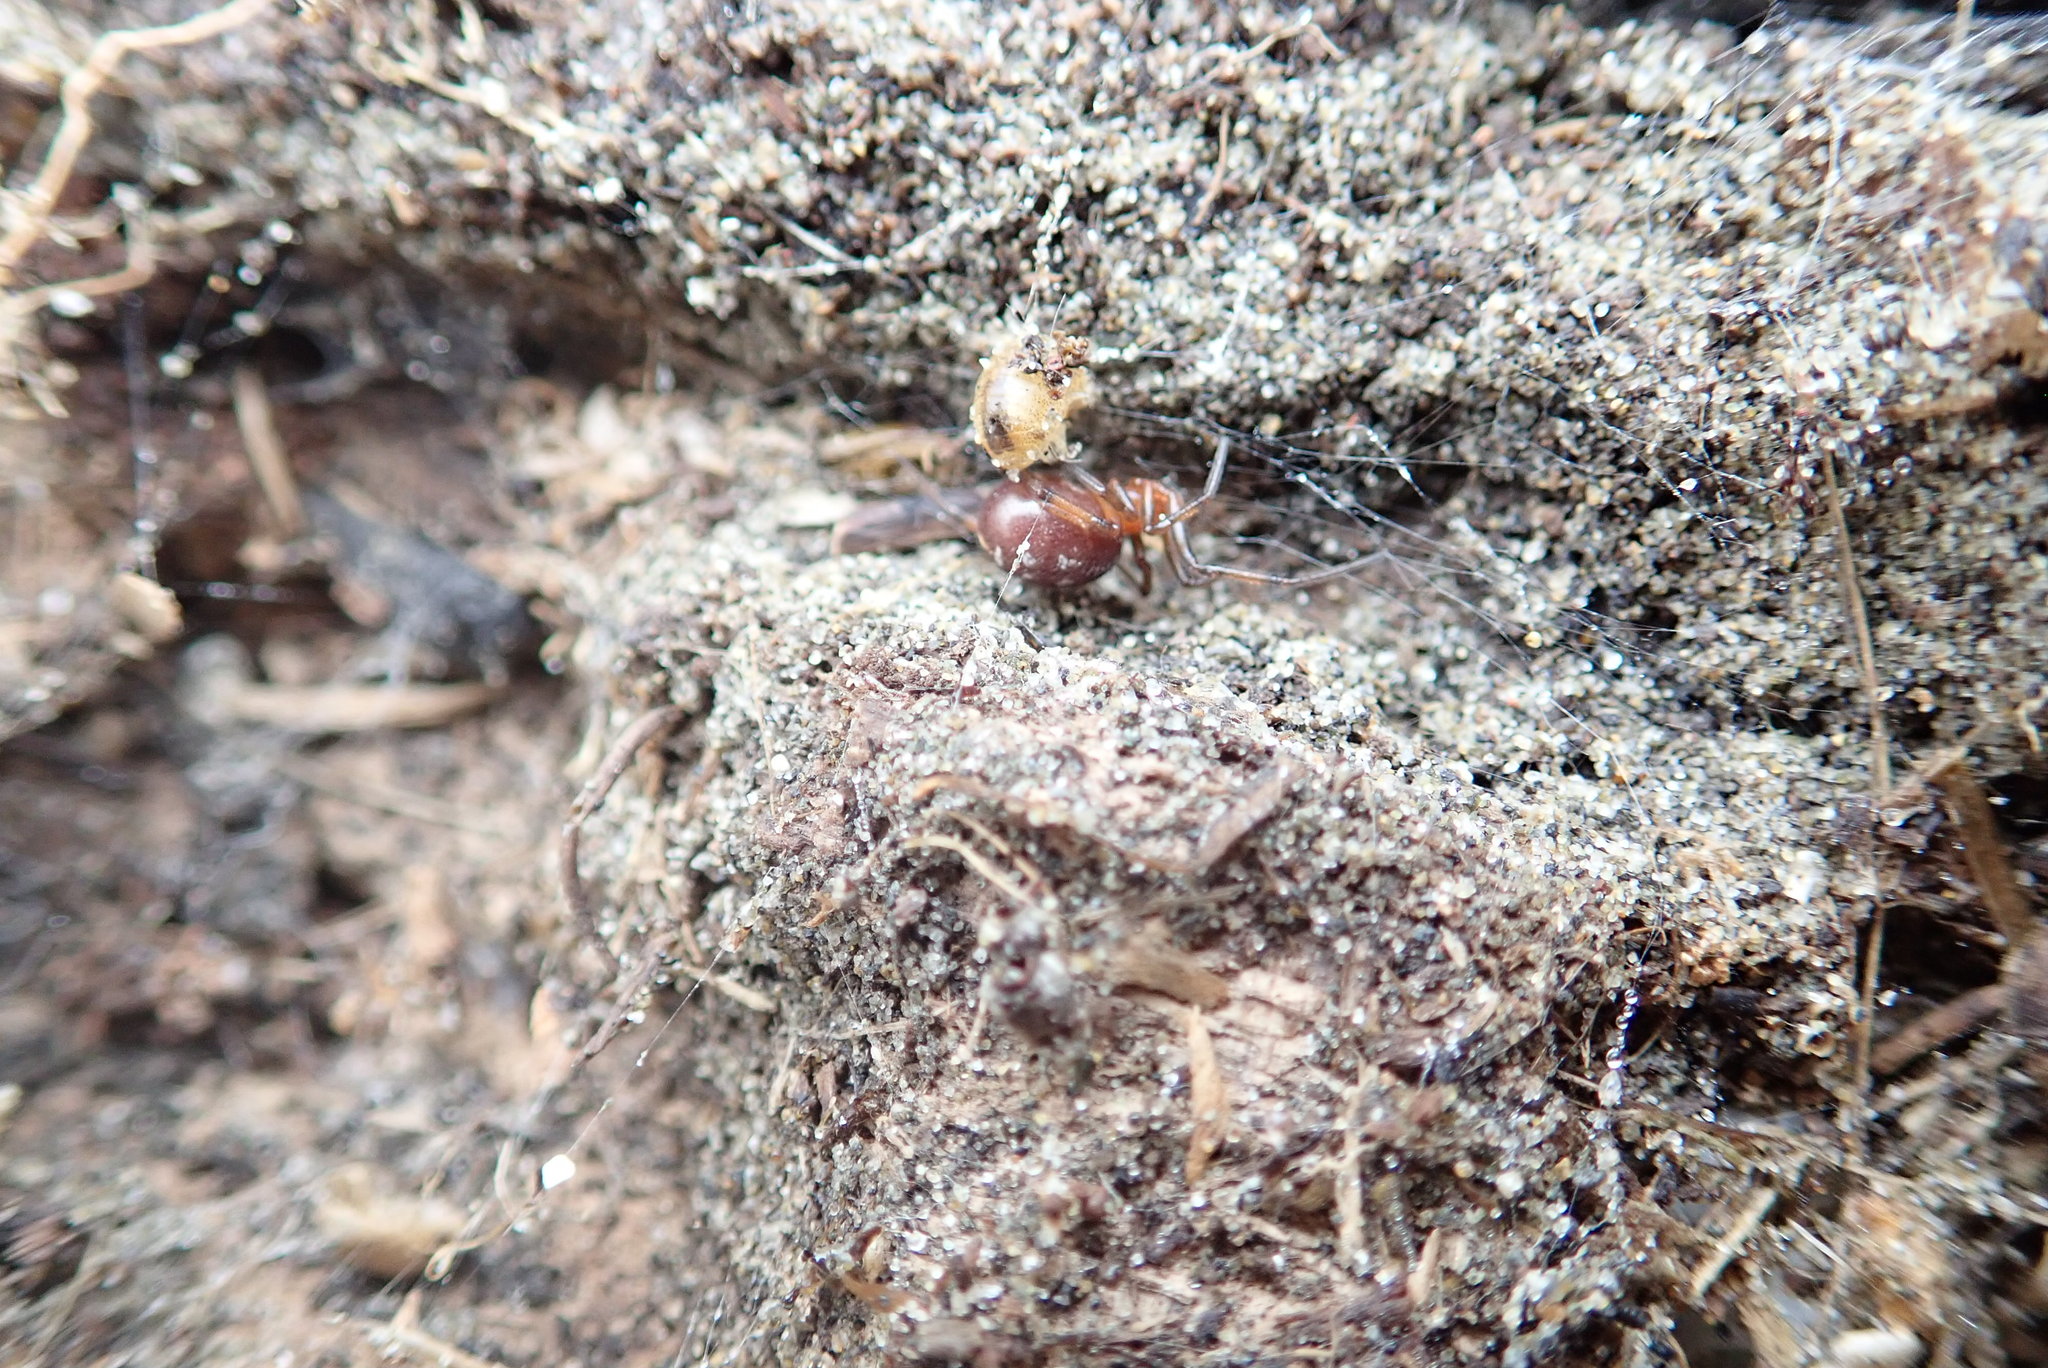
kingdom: Animalia
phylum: Arthropoda
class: Arachnida
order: Araneae
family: Theridiidae
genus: Steatoda
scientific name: Steatoda capensis
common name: Cobweb weaver
